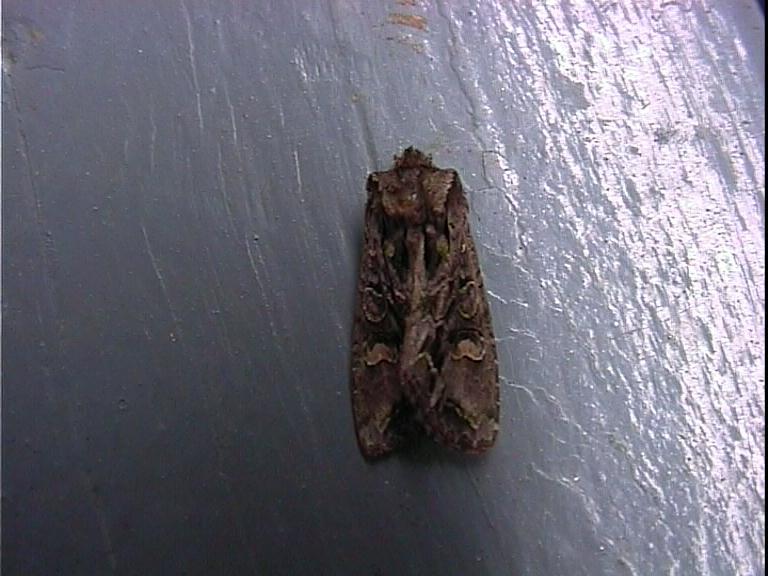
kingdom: Animalia
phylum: Arthropoda
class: Insecta
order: Lepidoptera
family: Noctuidae
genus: Ichneutica
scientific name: Ichneutica insignis
